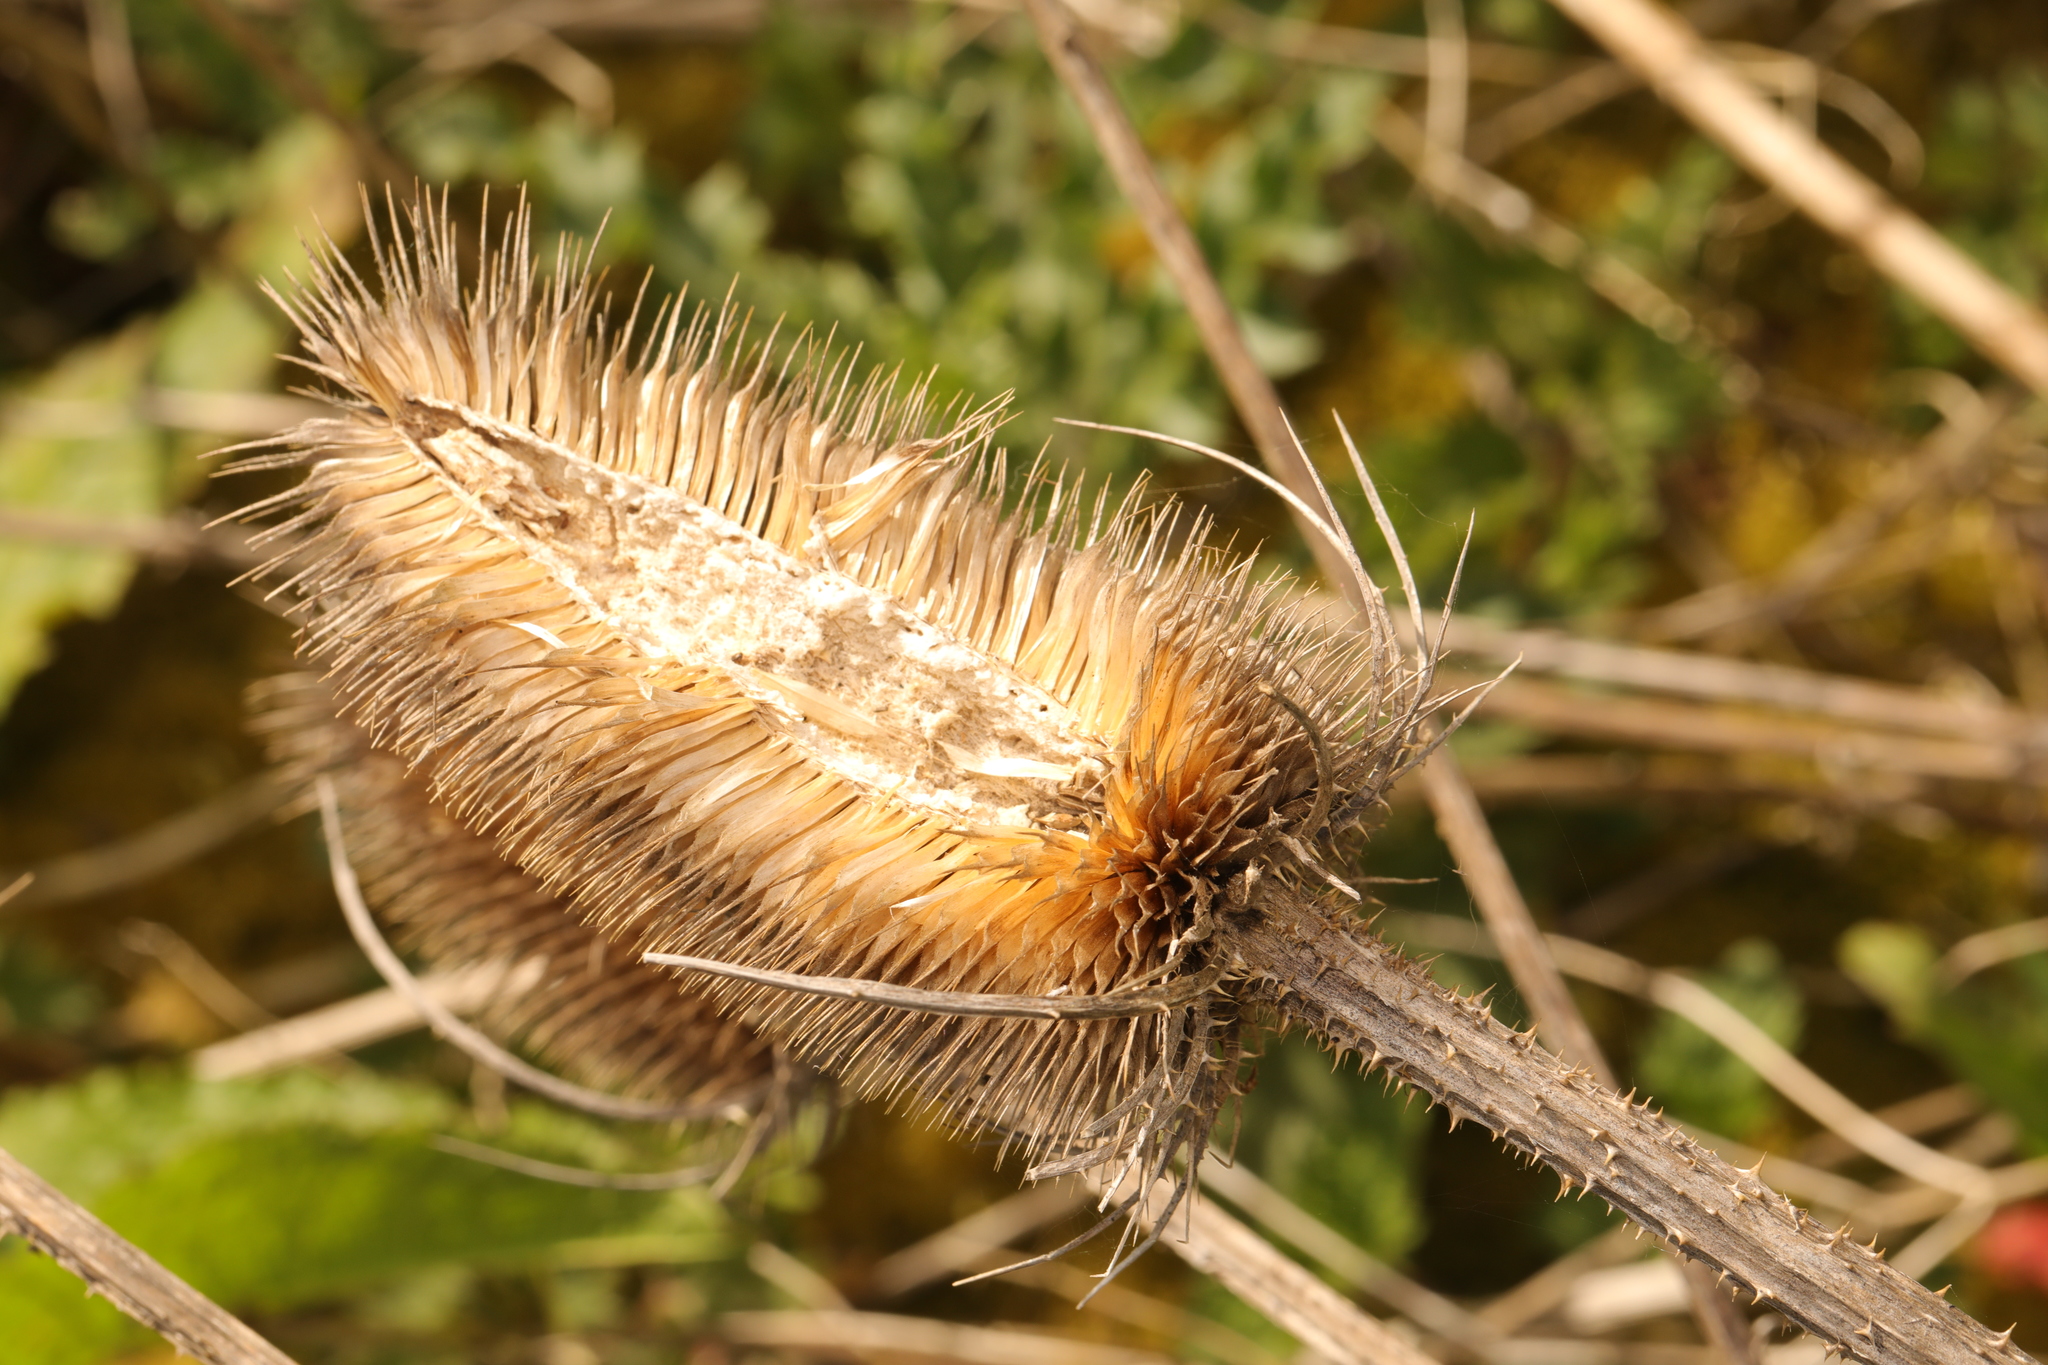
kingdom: Plantae
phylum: Tracheophyta
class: Magnoliopsida
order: Dipsacales
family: Caprifoliaceae
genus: Dipsacus
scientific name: Dipsacus fullonum
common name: Teasel
